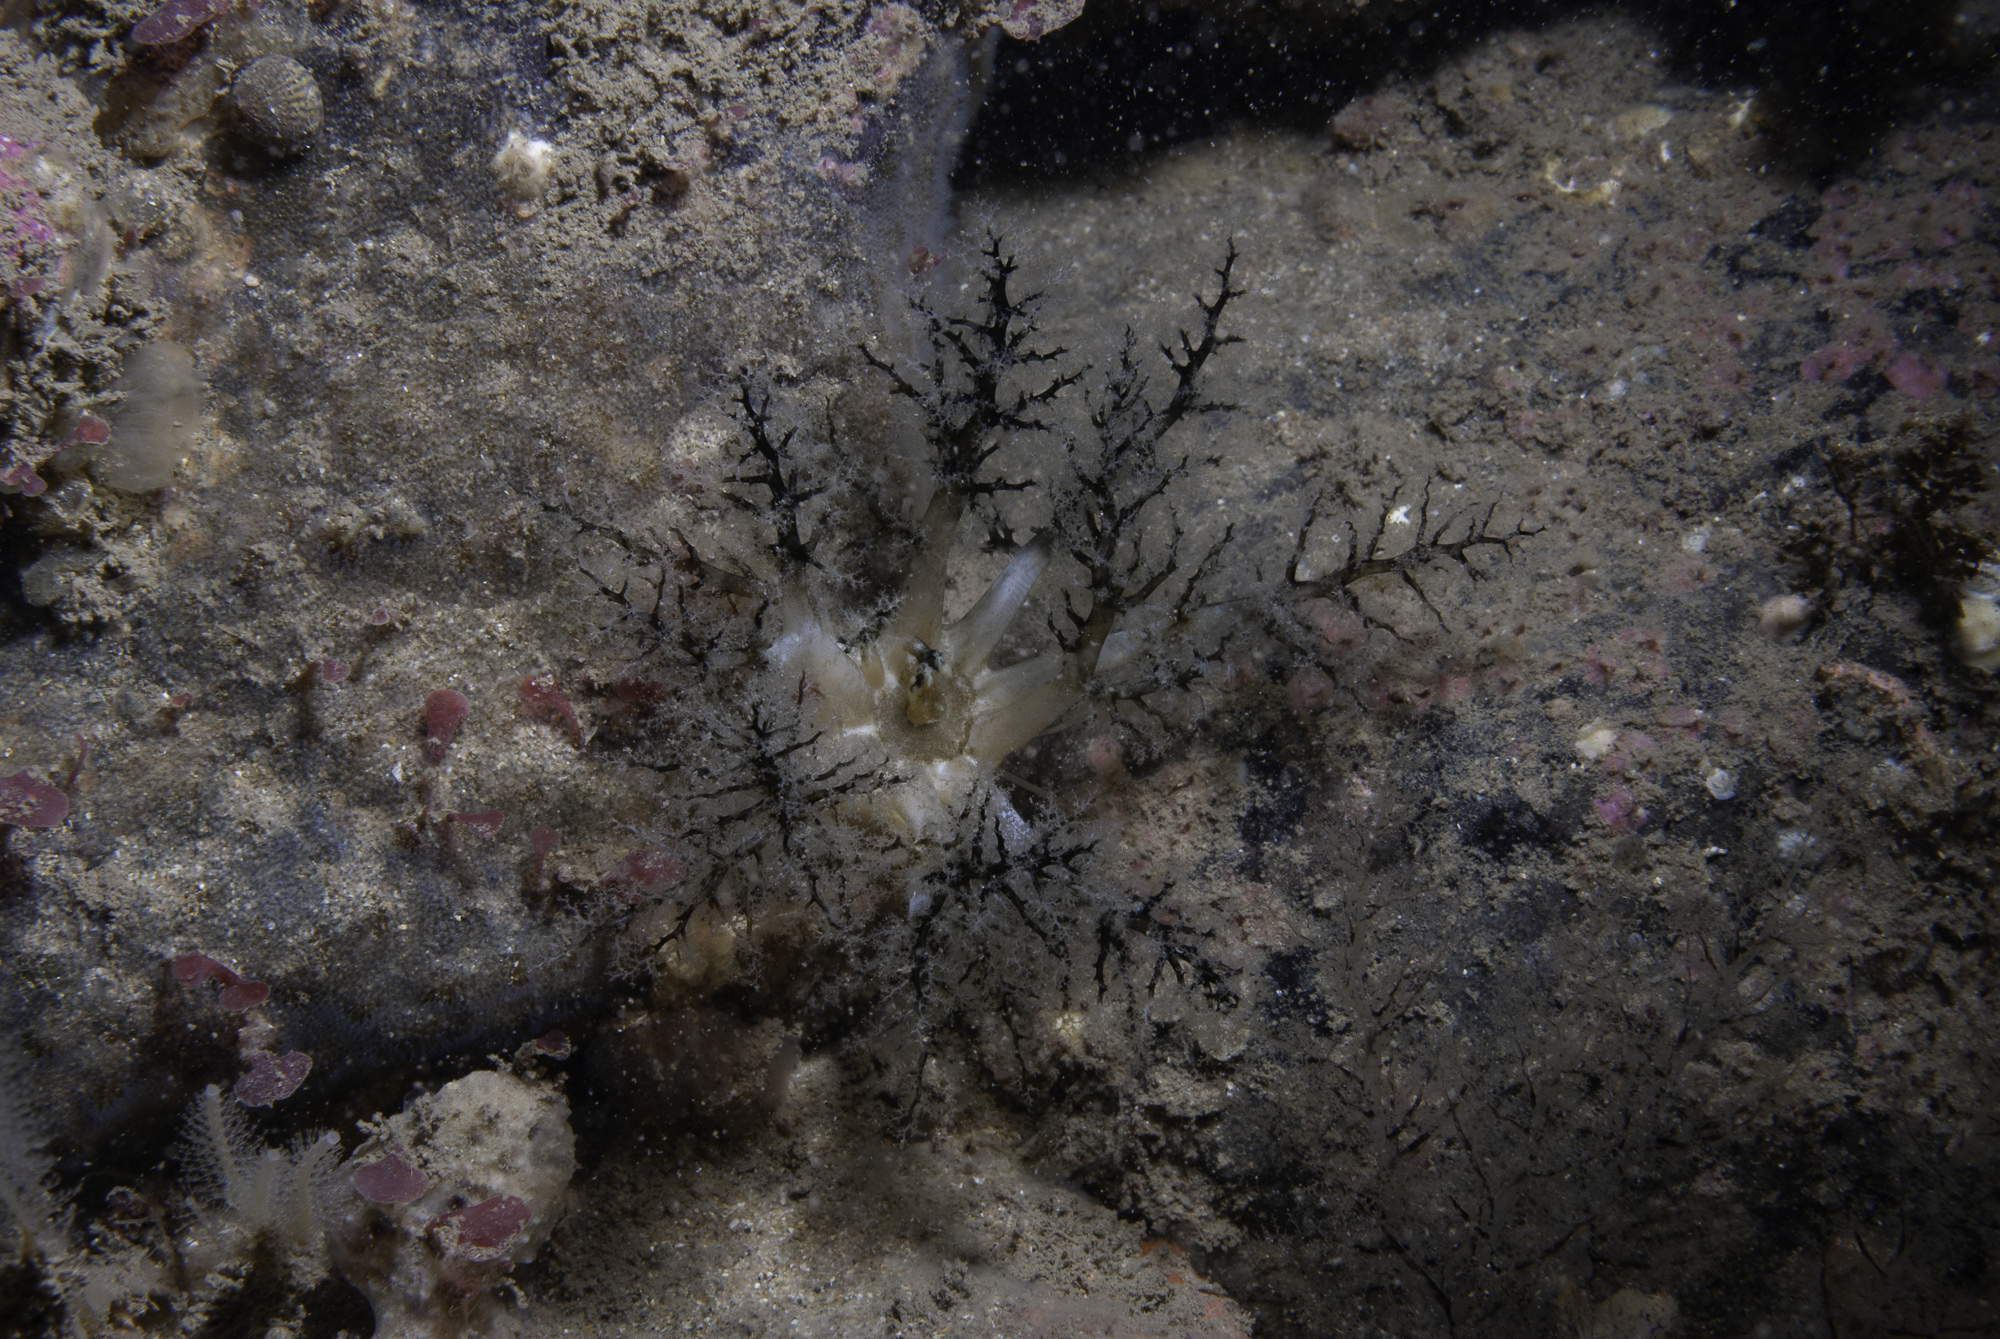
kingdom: Animalia
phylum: Echinodermata
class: Holothuroidea
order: Dendrochirotida
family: Cucumariidae
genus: Pawsonia
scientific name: Pawsonia saxicola
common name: Sea gherkin
